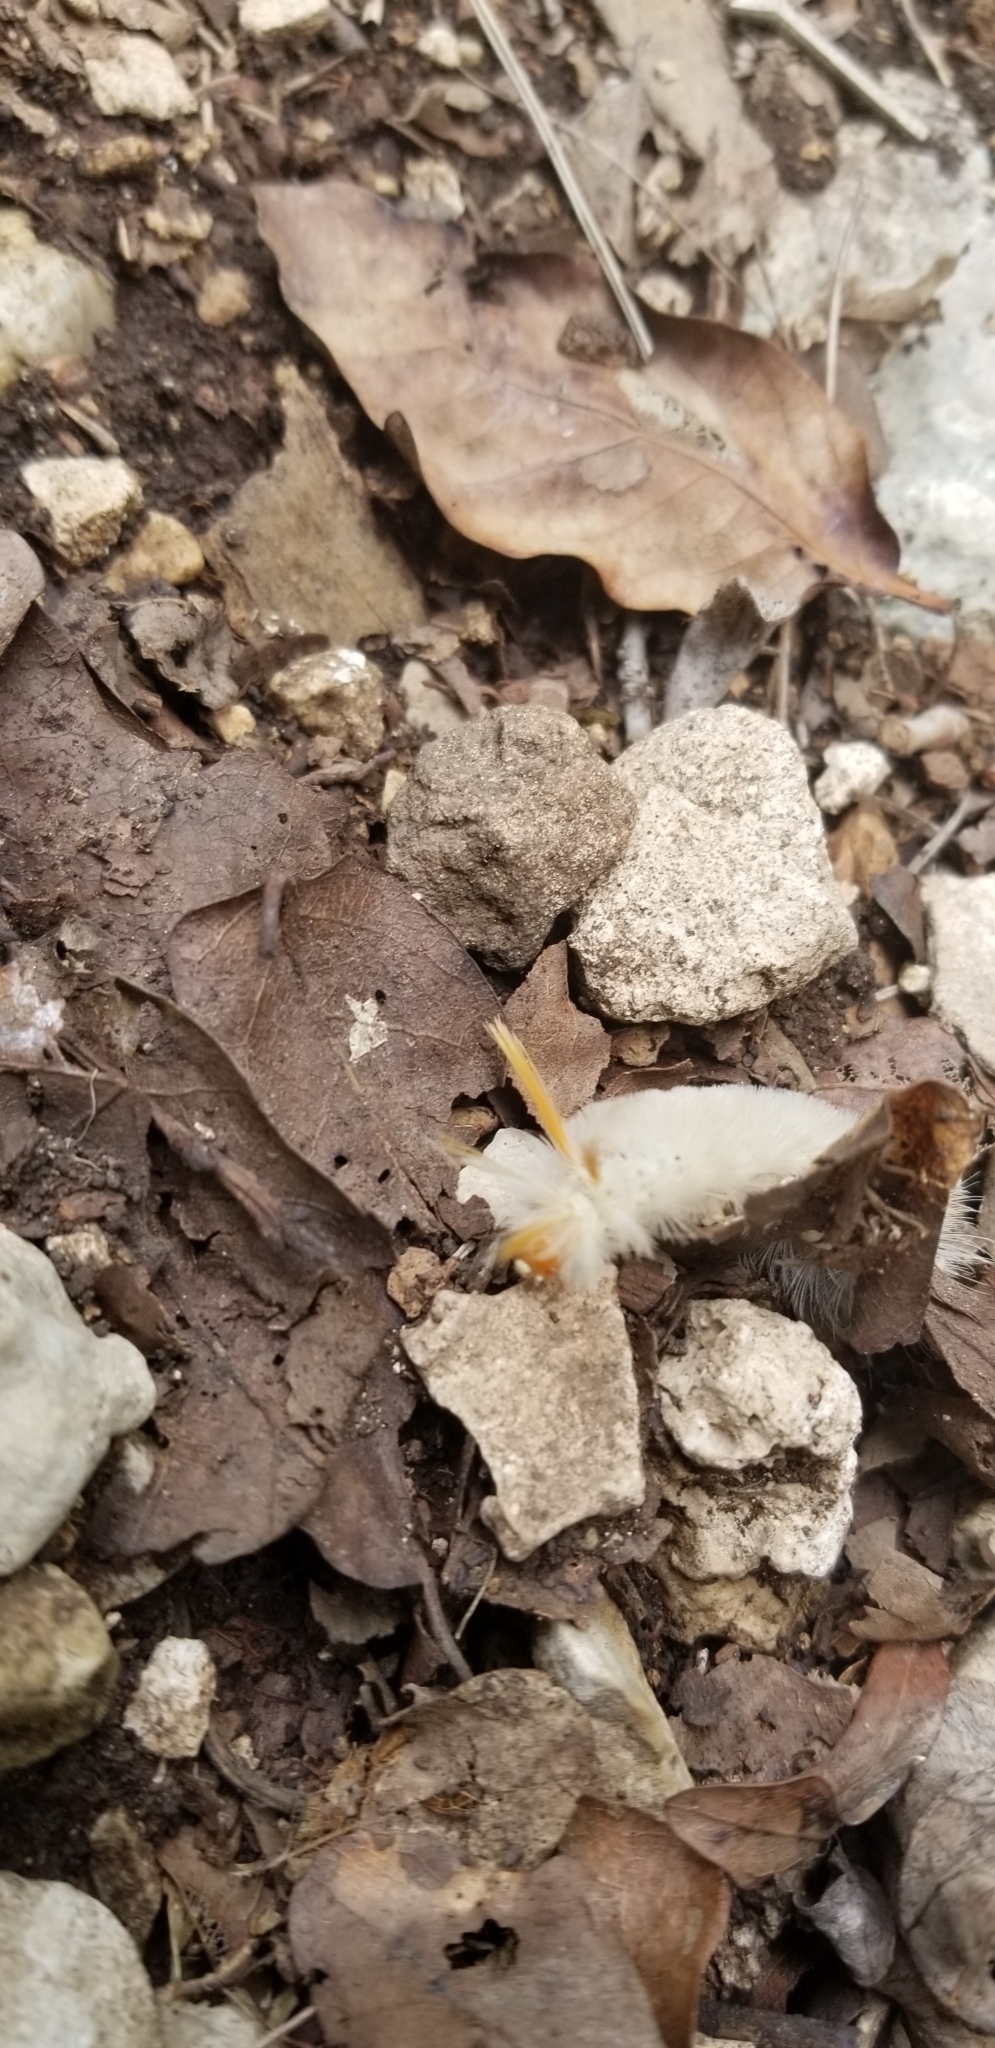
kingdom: Animalia
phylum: Arthropoda
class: Insecta
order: Lepidoptera
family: Erebidae
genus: Halysidota
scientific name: Halysidota harrisii
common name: Sycamore tussock moth
